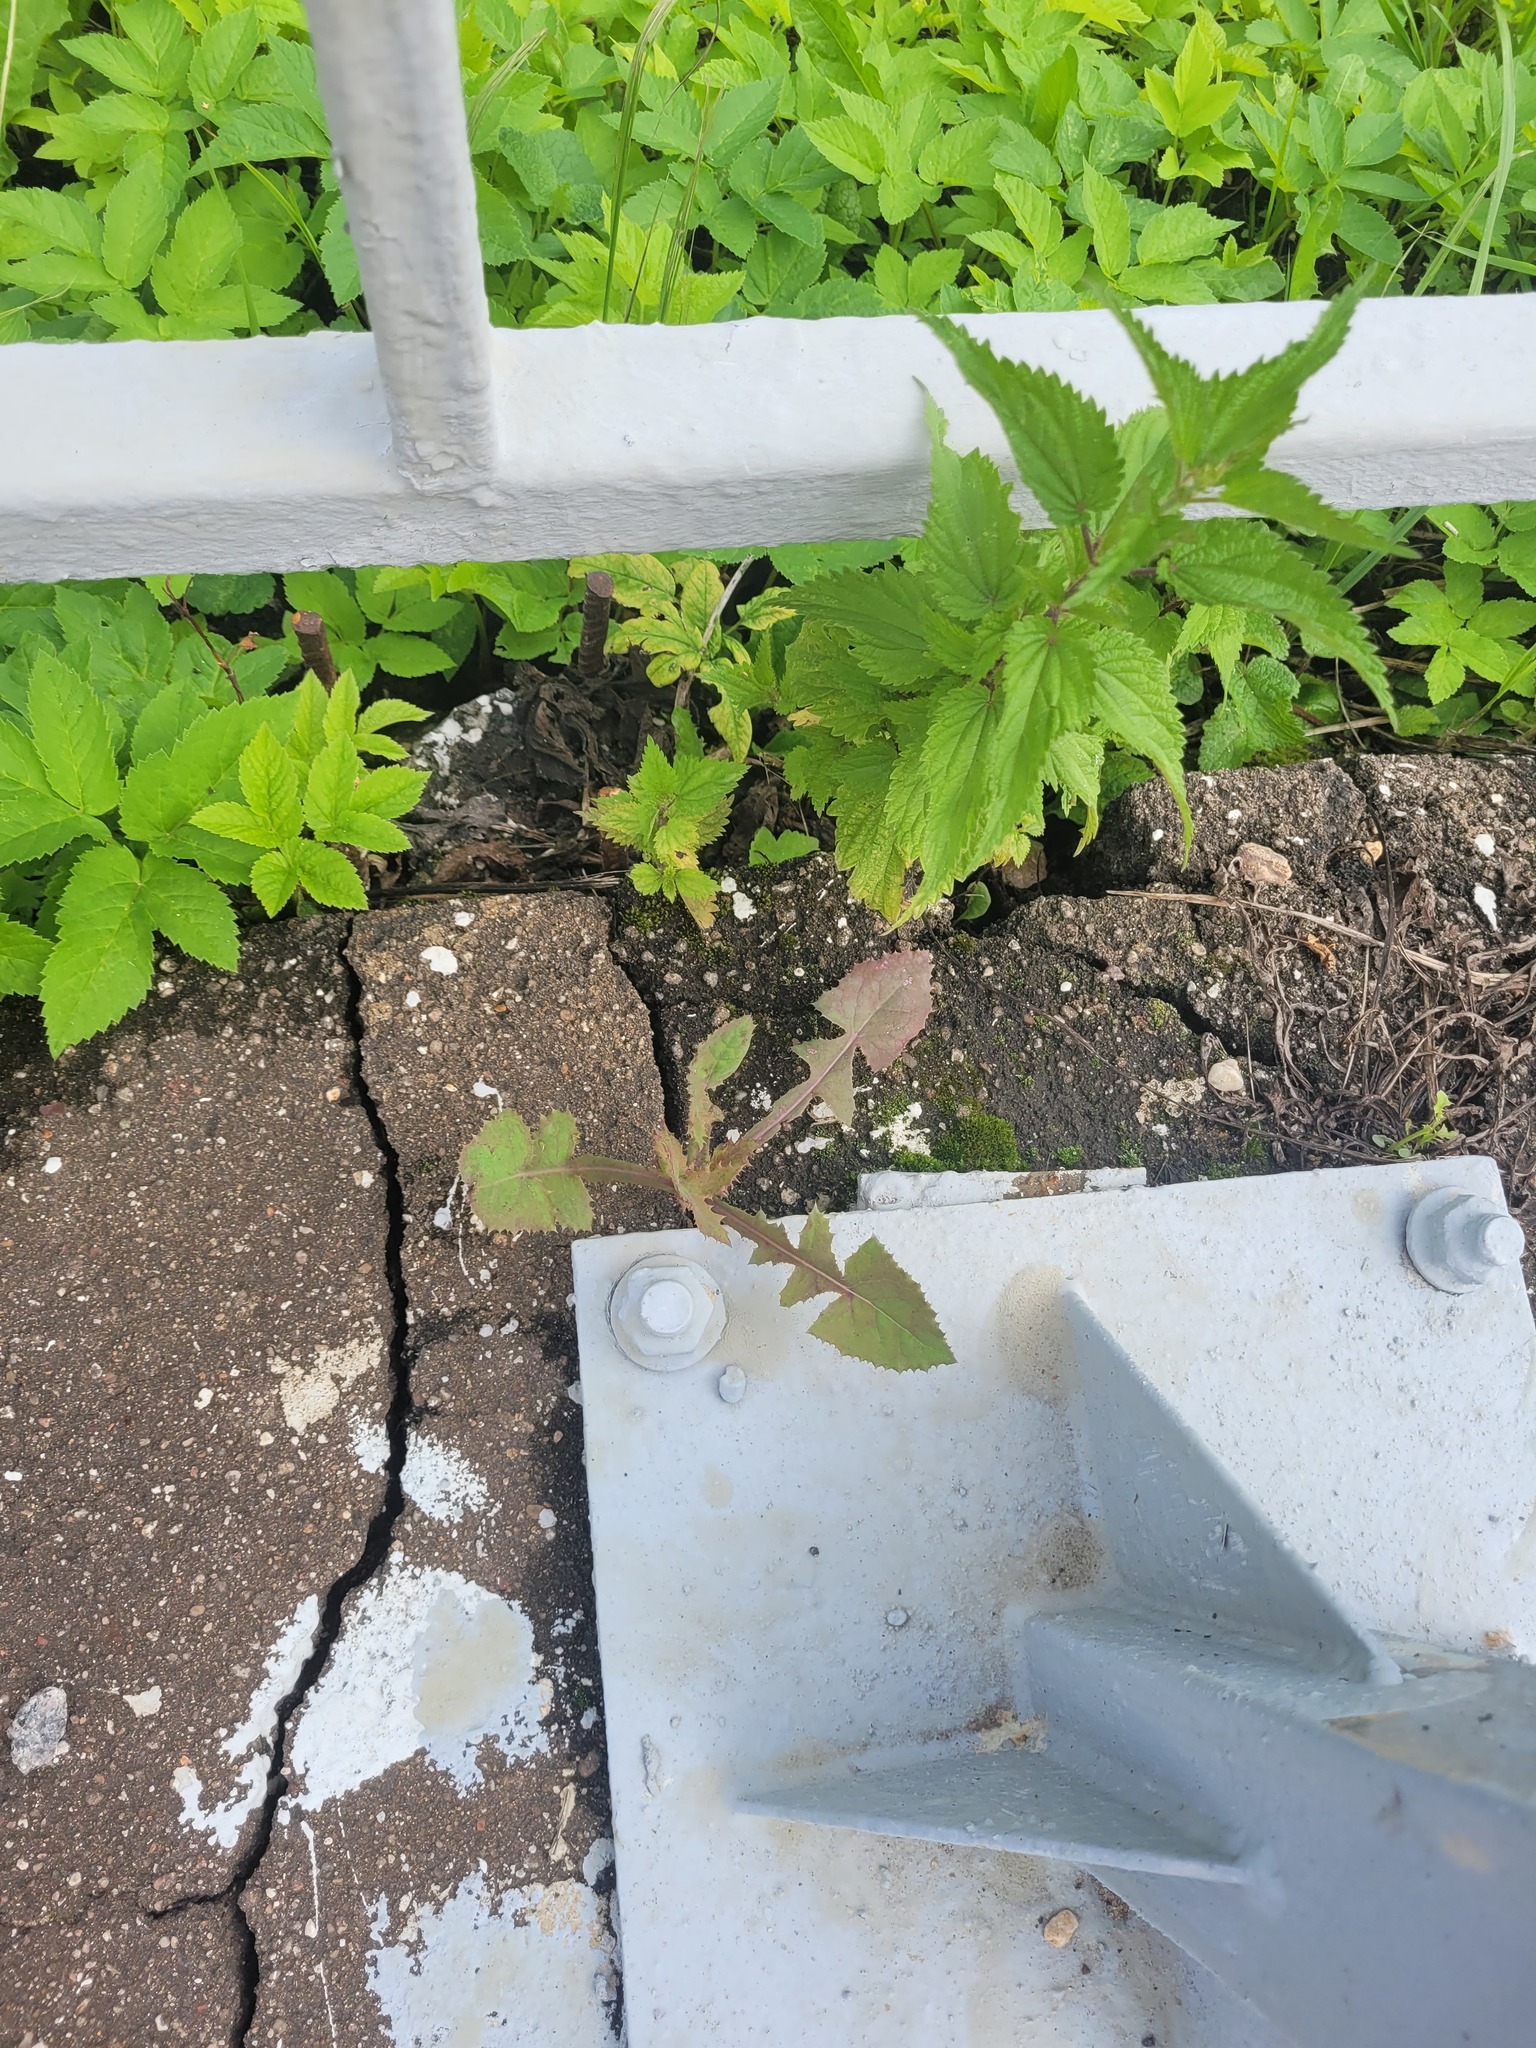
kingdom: Plantae
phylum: Tracheophyta
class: Magnoliopsida
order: Asterales
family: Asteraceae
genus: Sonchus
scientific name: Sonchus oleraceus
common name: Common sowthistle
